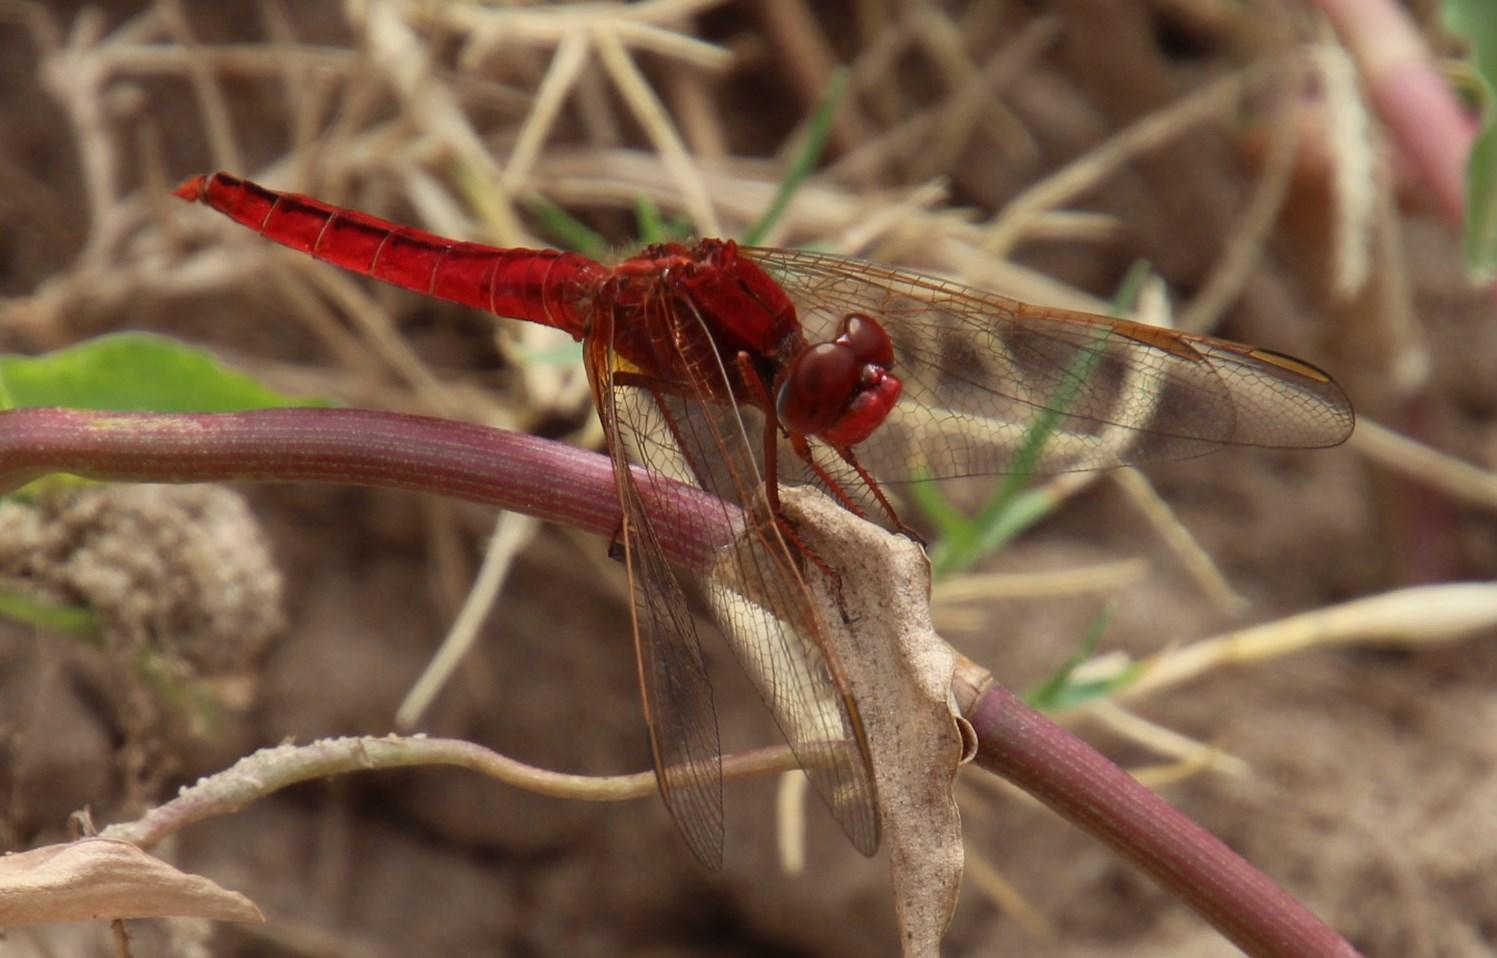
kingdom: Animalia
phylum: Arthropoda
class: Insecta
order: Odonata
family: Libellulidae
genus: Crocothemis
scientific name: Crocothemis erythraea
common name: Scarlet dragonfly
